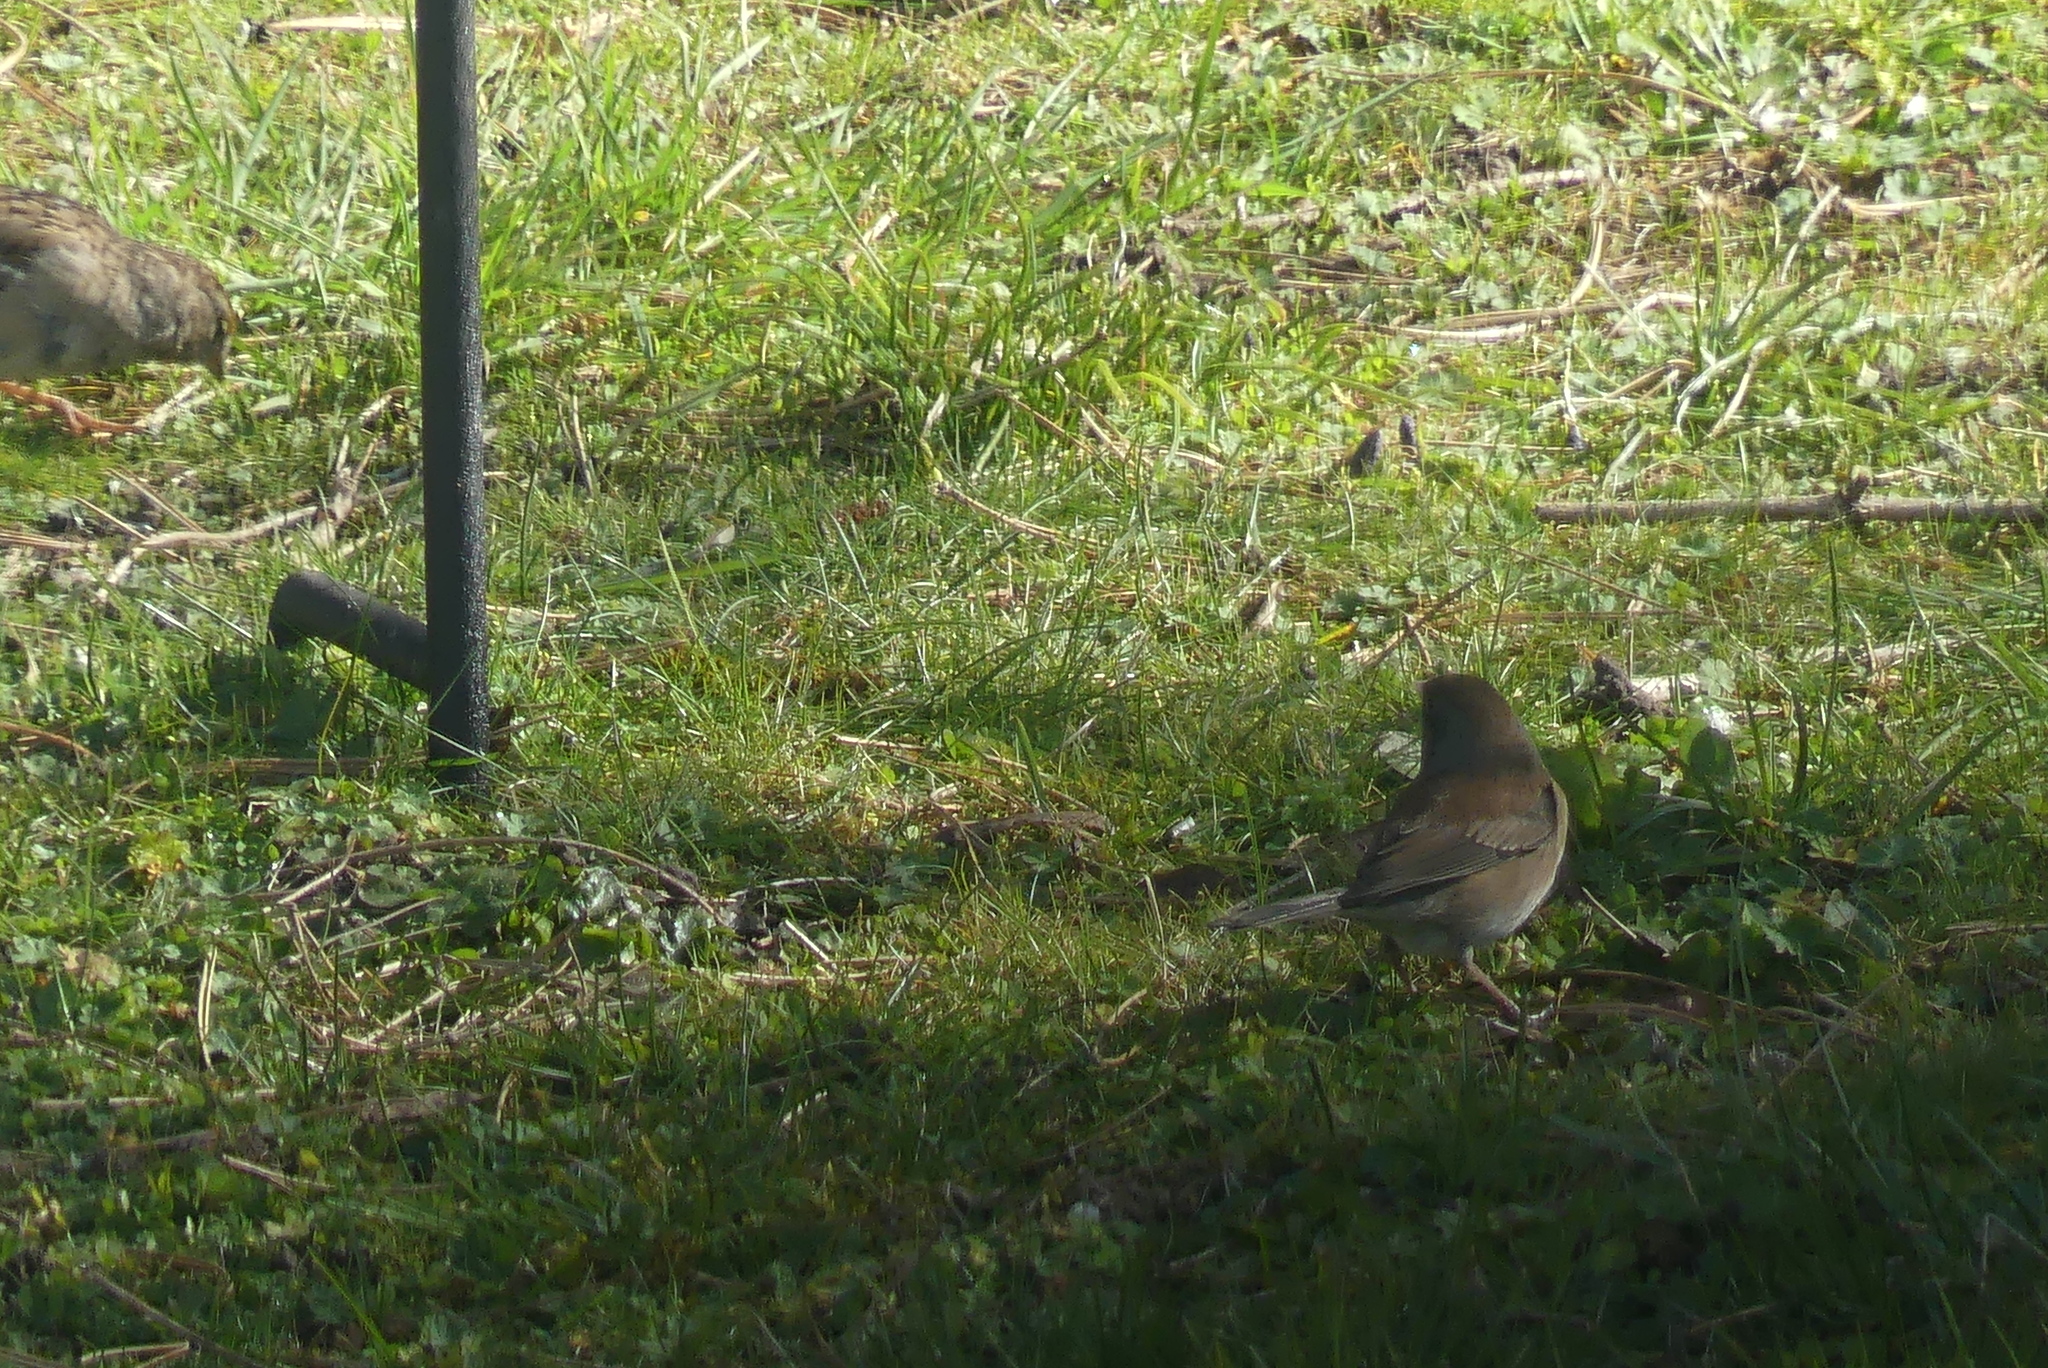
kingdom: Animalia
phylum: Chordata
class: Aves
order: Passeriformes
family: Passerellidae
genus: Junco
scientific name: Junco hyemalis
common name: Dark-eyed junco
